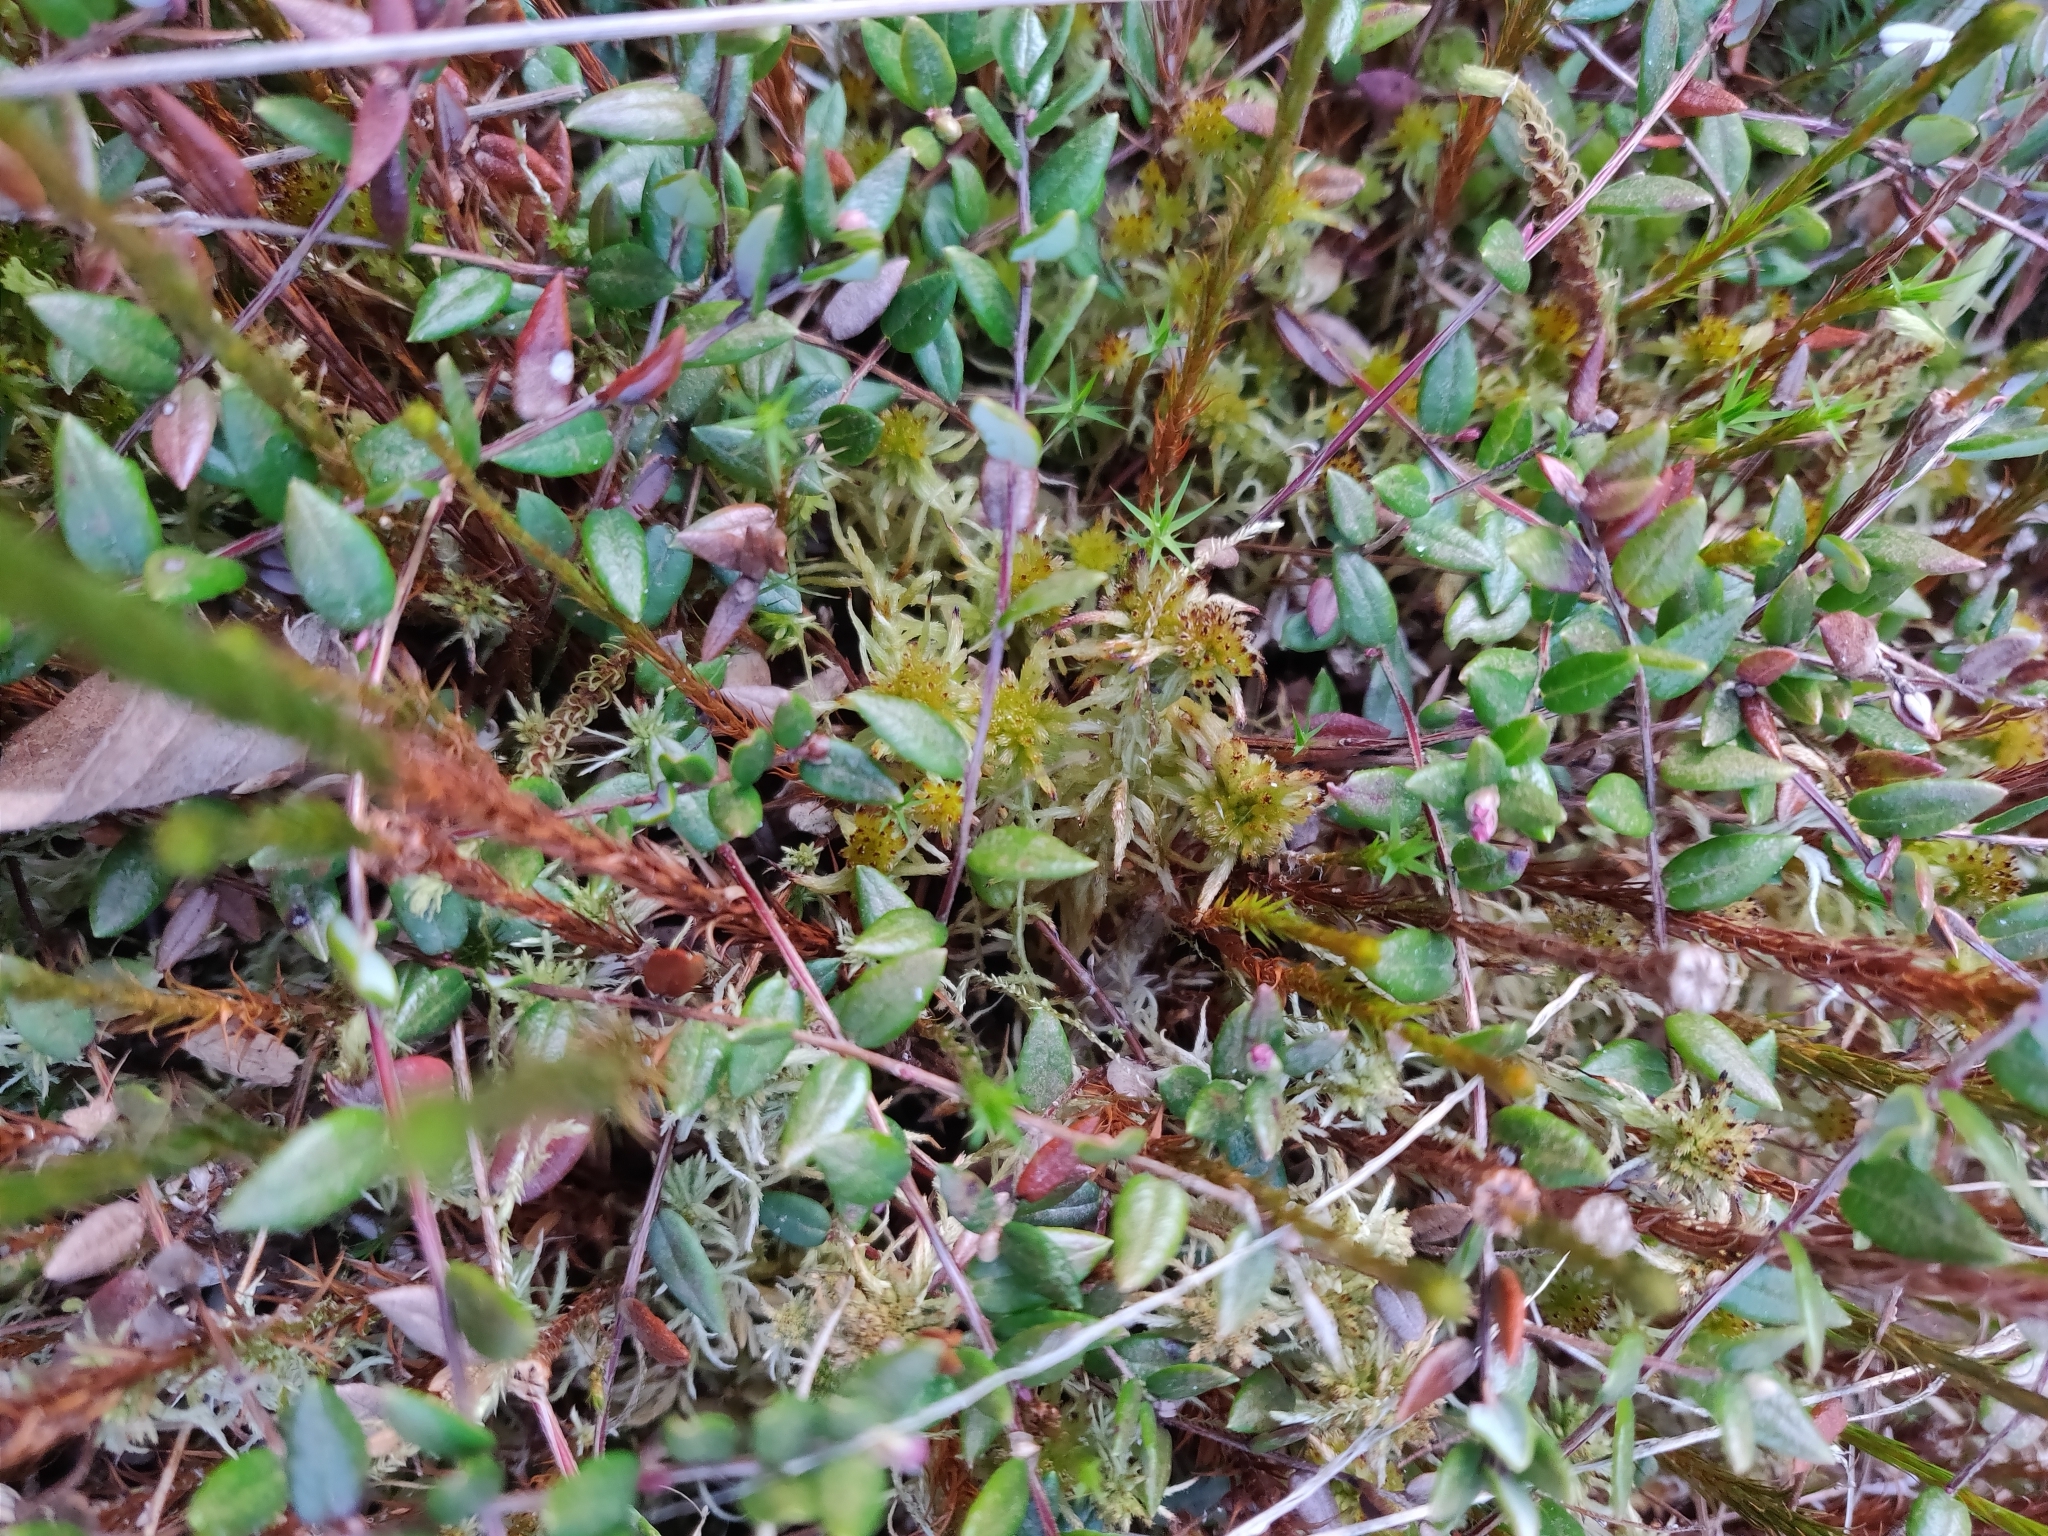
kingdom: Plantae
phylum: Tracheophyta
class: Magnoliopsida
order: Ericales
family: Ericaceae
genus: Vaccinium
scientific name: Vaccinium oxycoccos
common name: Cranberry
